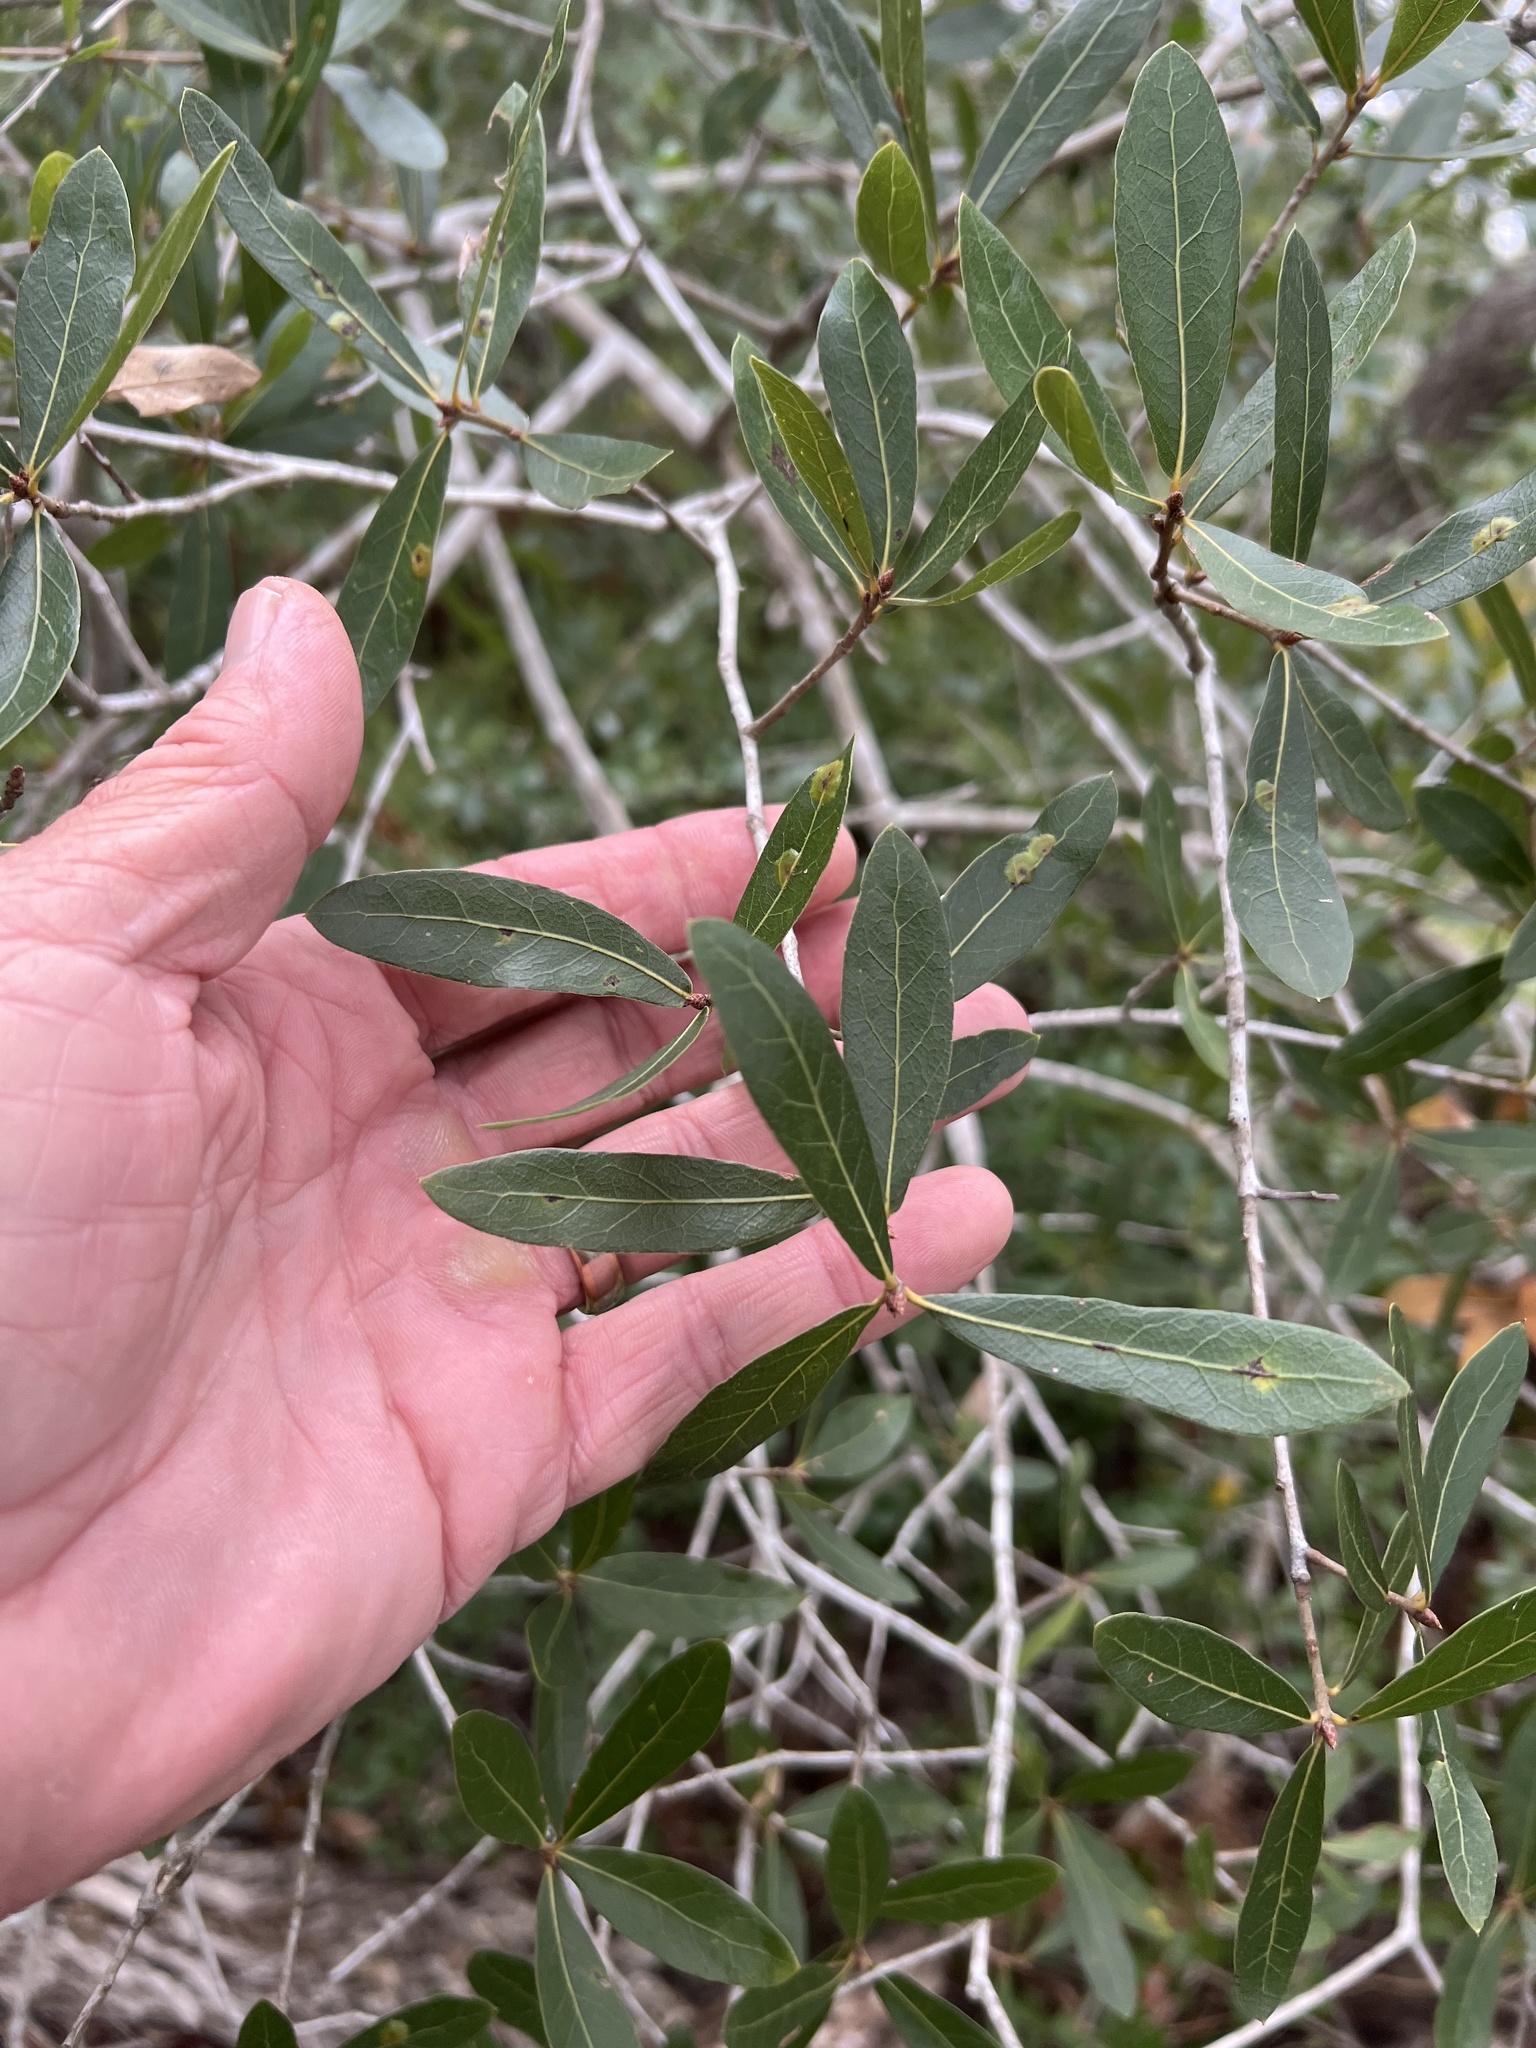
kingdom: Plantae
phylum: Tracheophyta
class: Magnoliopsida
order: Fagales
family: Fagaceae
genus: Quercus
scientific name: Quercus laurifolia
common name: Swamp laurel oak
